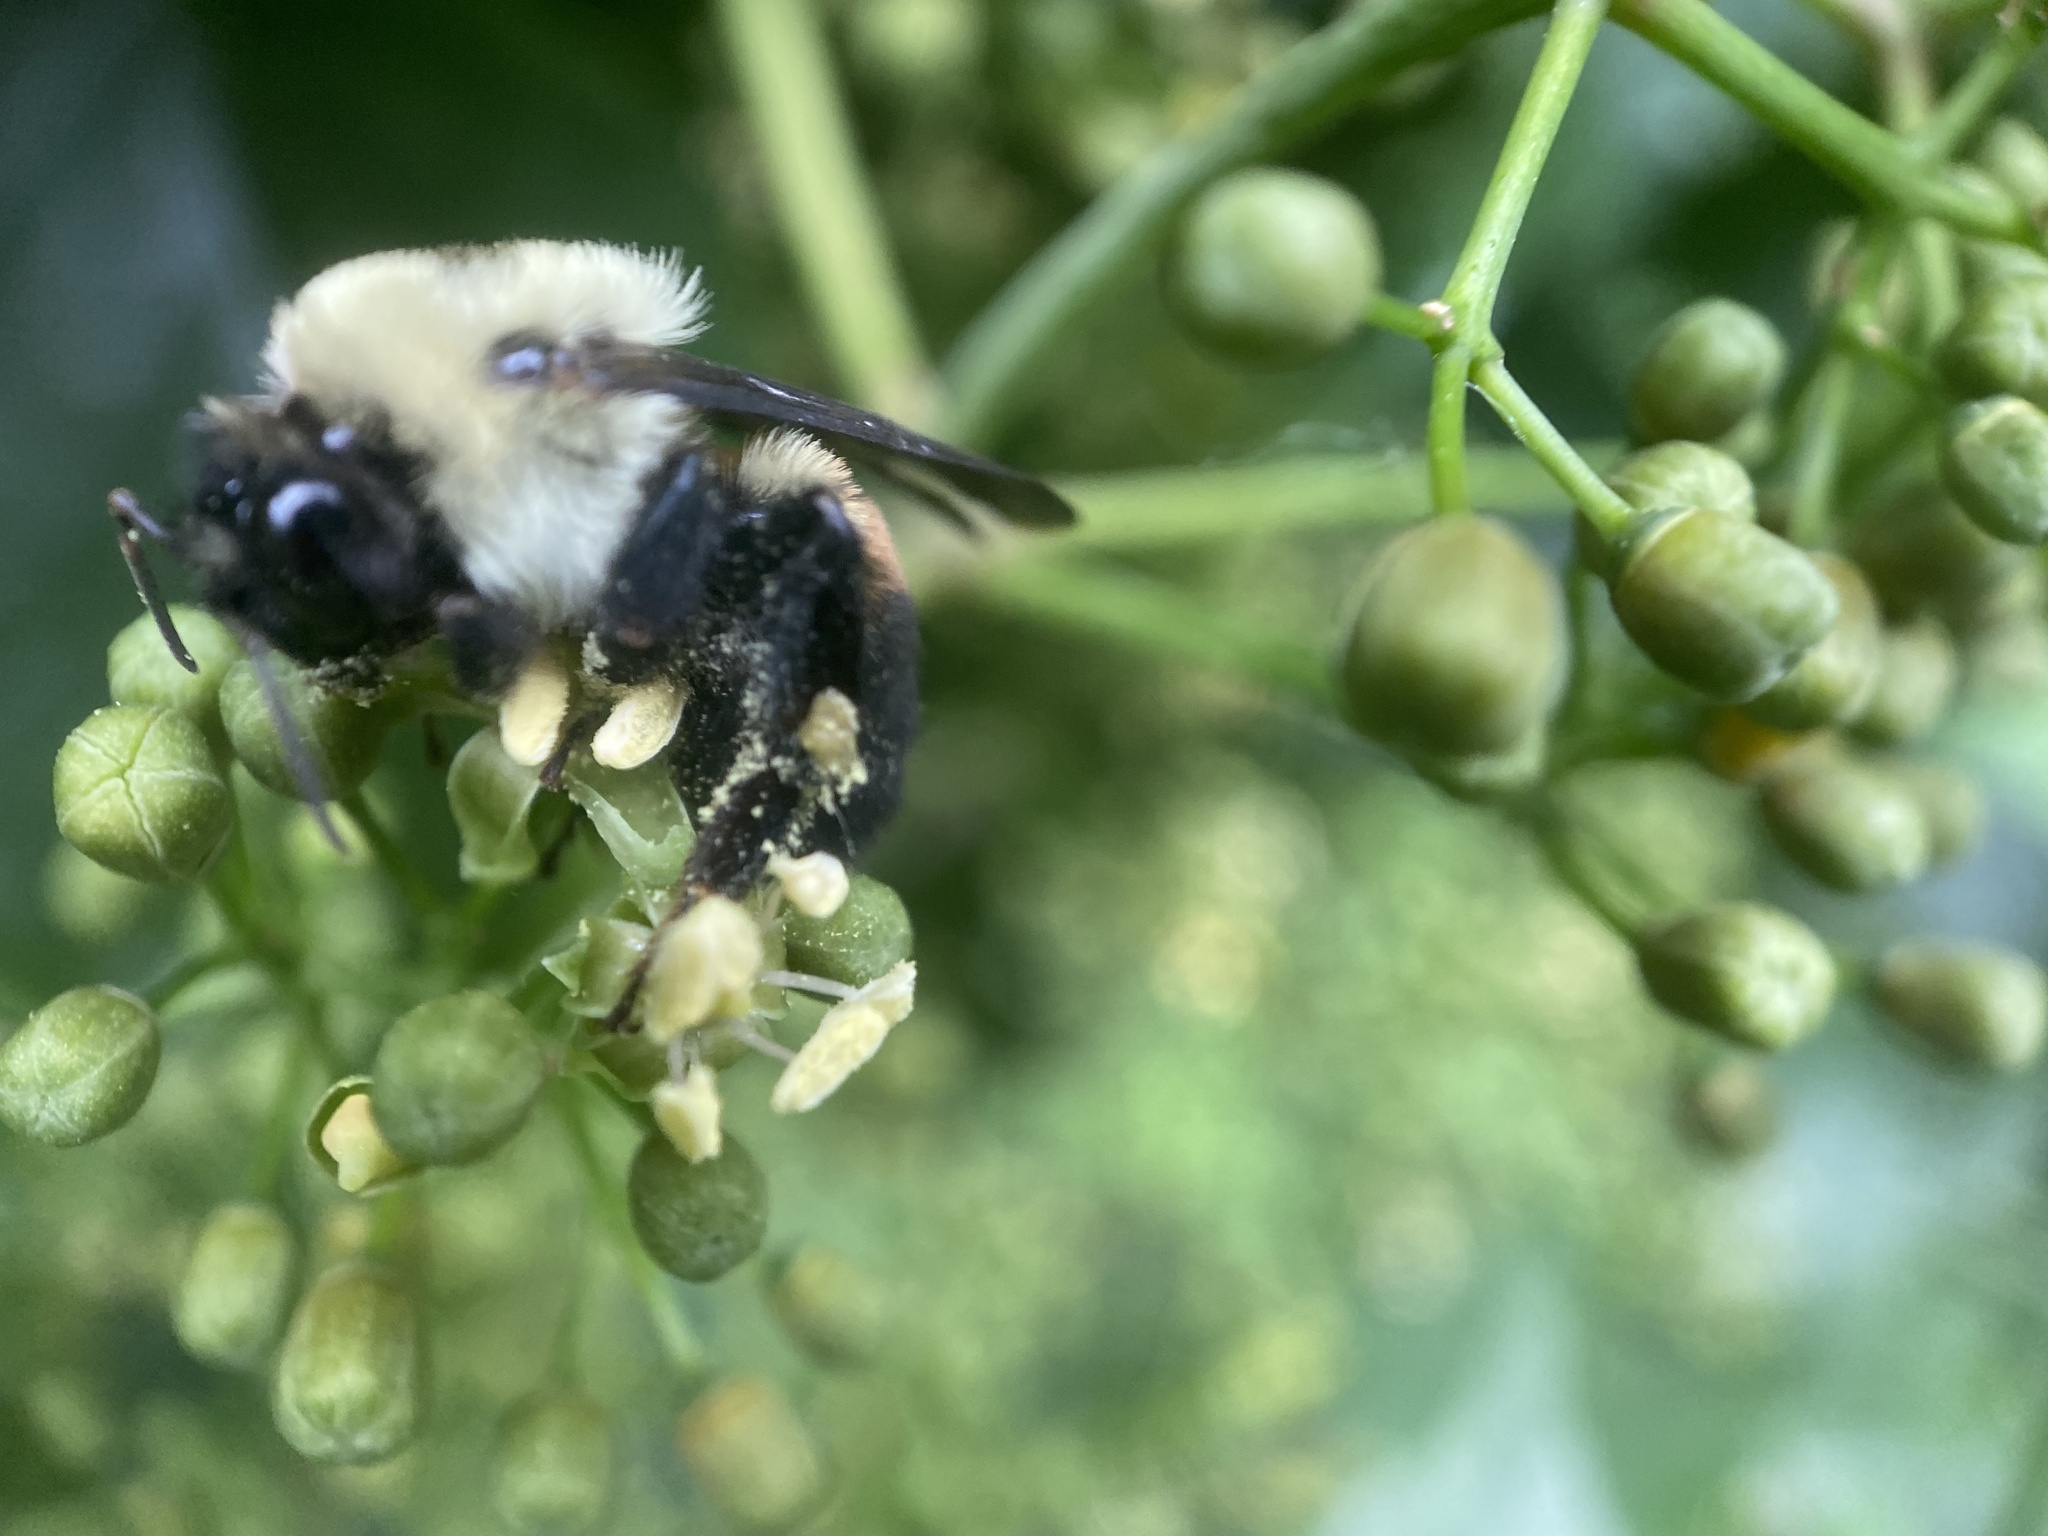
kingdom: Animalia
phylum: Arthropoda
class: Insecta
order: Hymenoptera
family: Apidae
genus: Bombus
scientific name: Bombus griseocollis
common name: Brown-belted bumble bee
